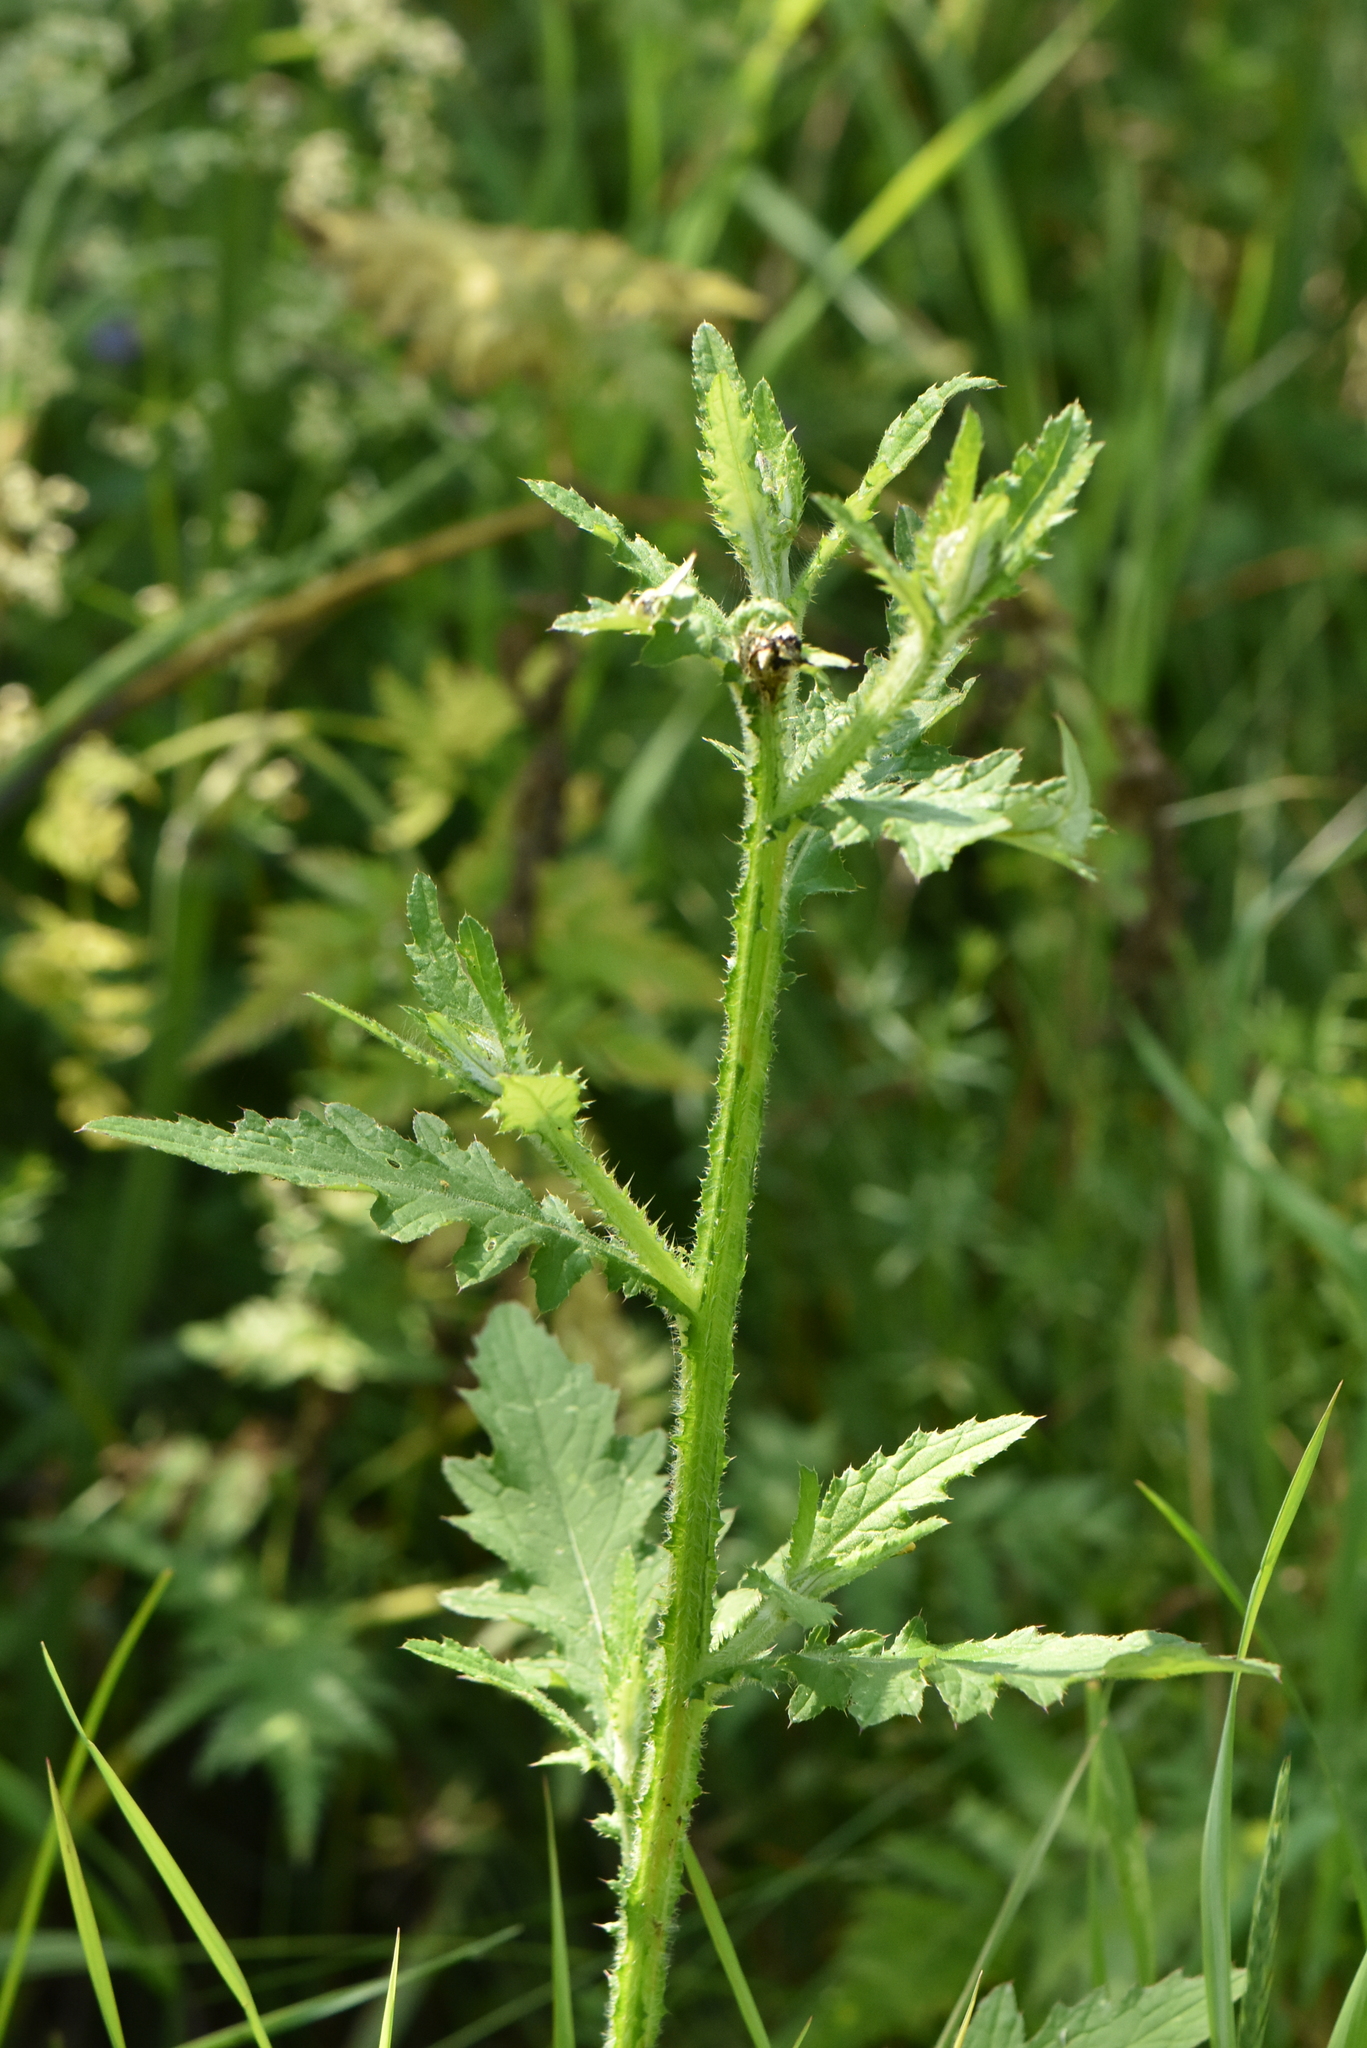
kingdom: Plantae
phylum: Tracheophyta
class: Magnoliopsida
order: Asterales
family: Asteraceae
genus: Carduus
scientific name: Carduus crispus
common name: Welted thistle
